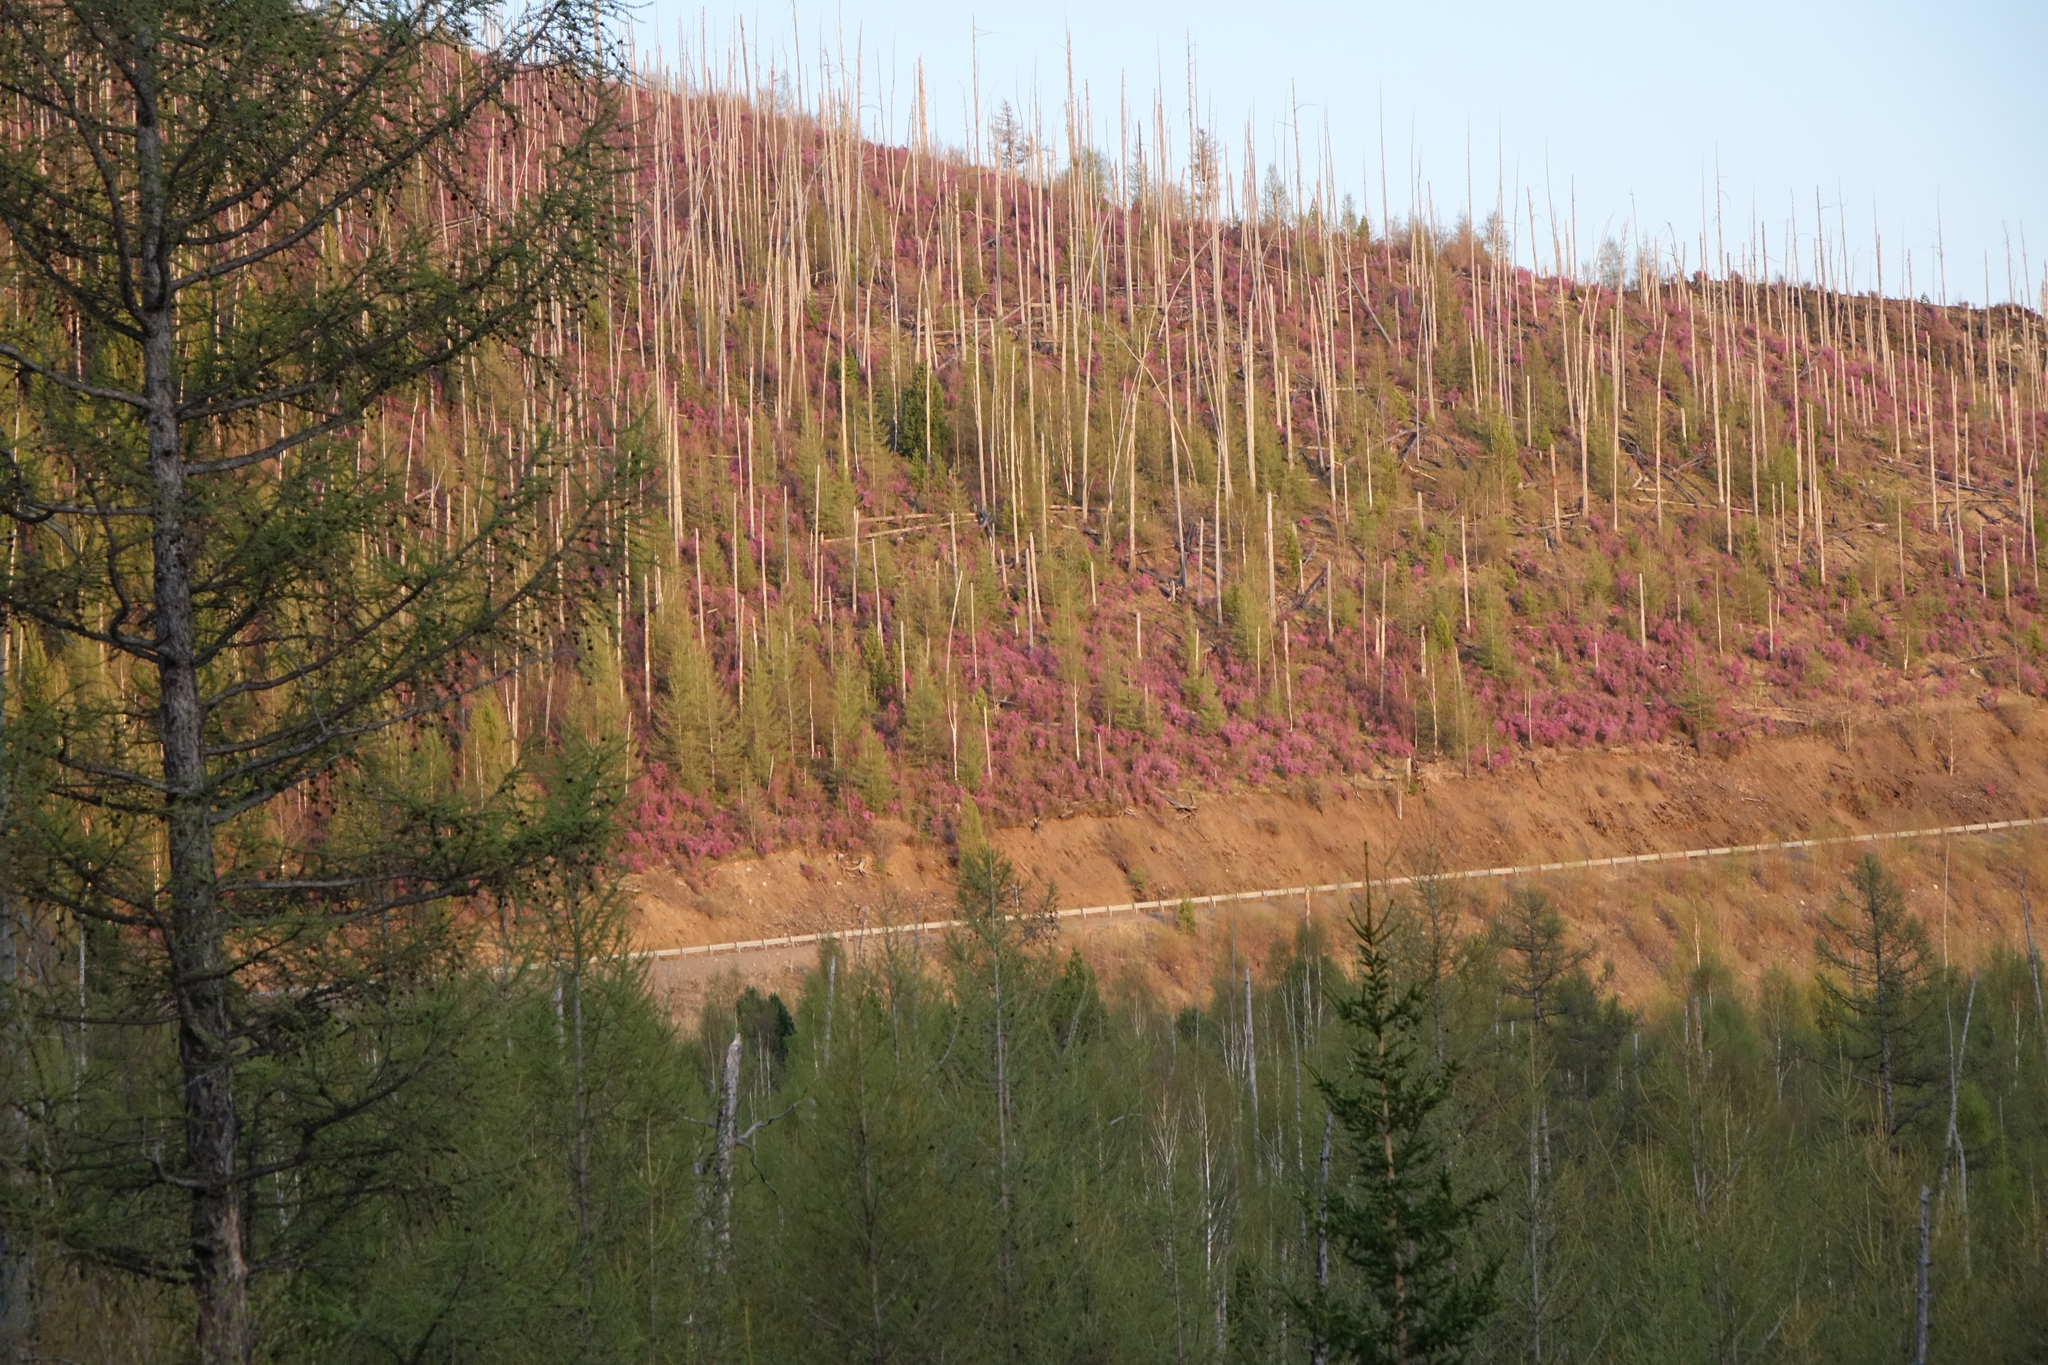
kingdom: Plantae
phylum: Tracheophyta
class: Pinopsida
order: Pinales
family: Pinaceae
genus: Larix
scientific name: Larix sibirica
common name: Siberian larch
